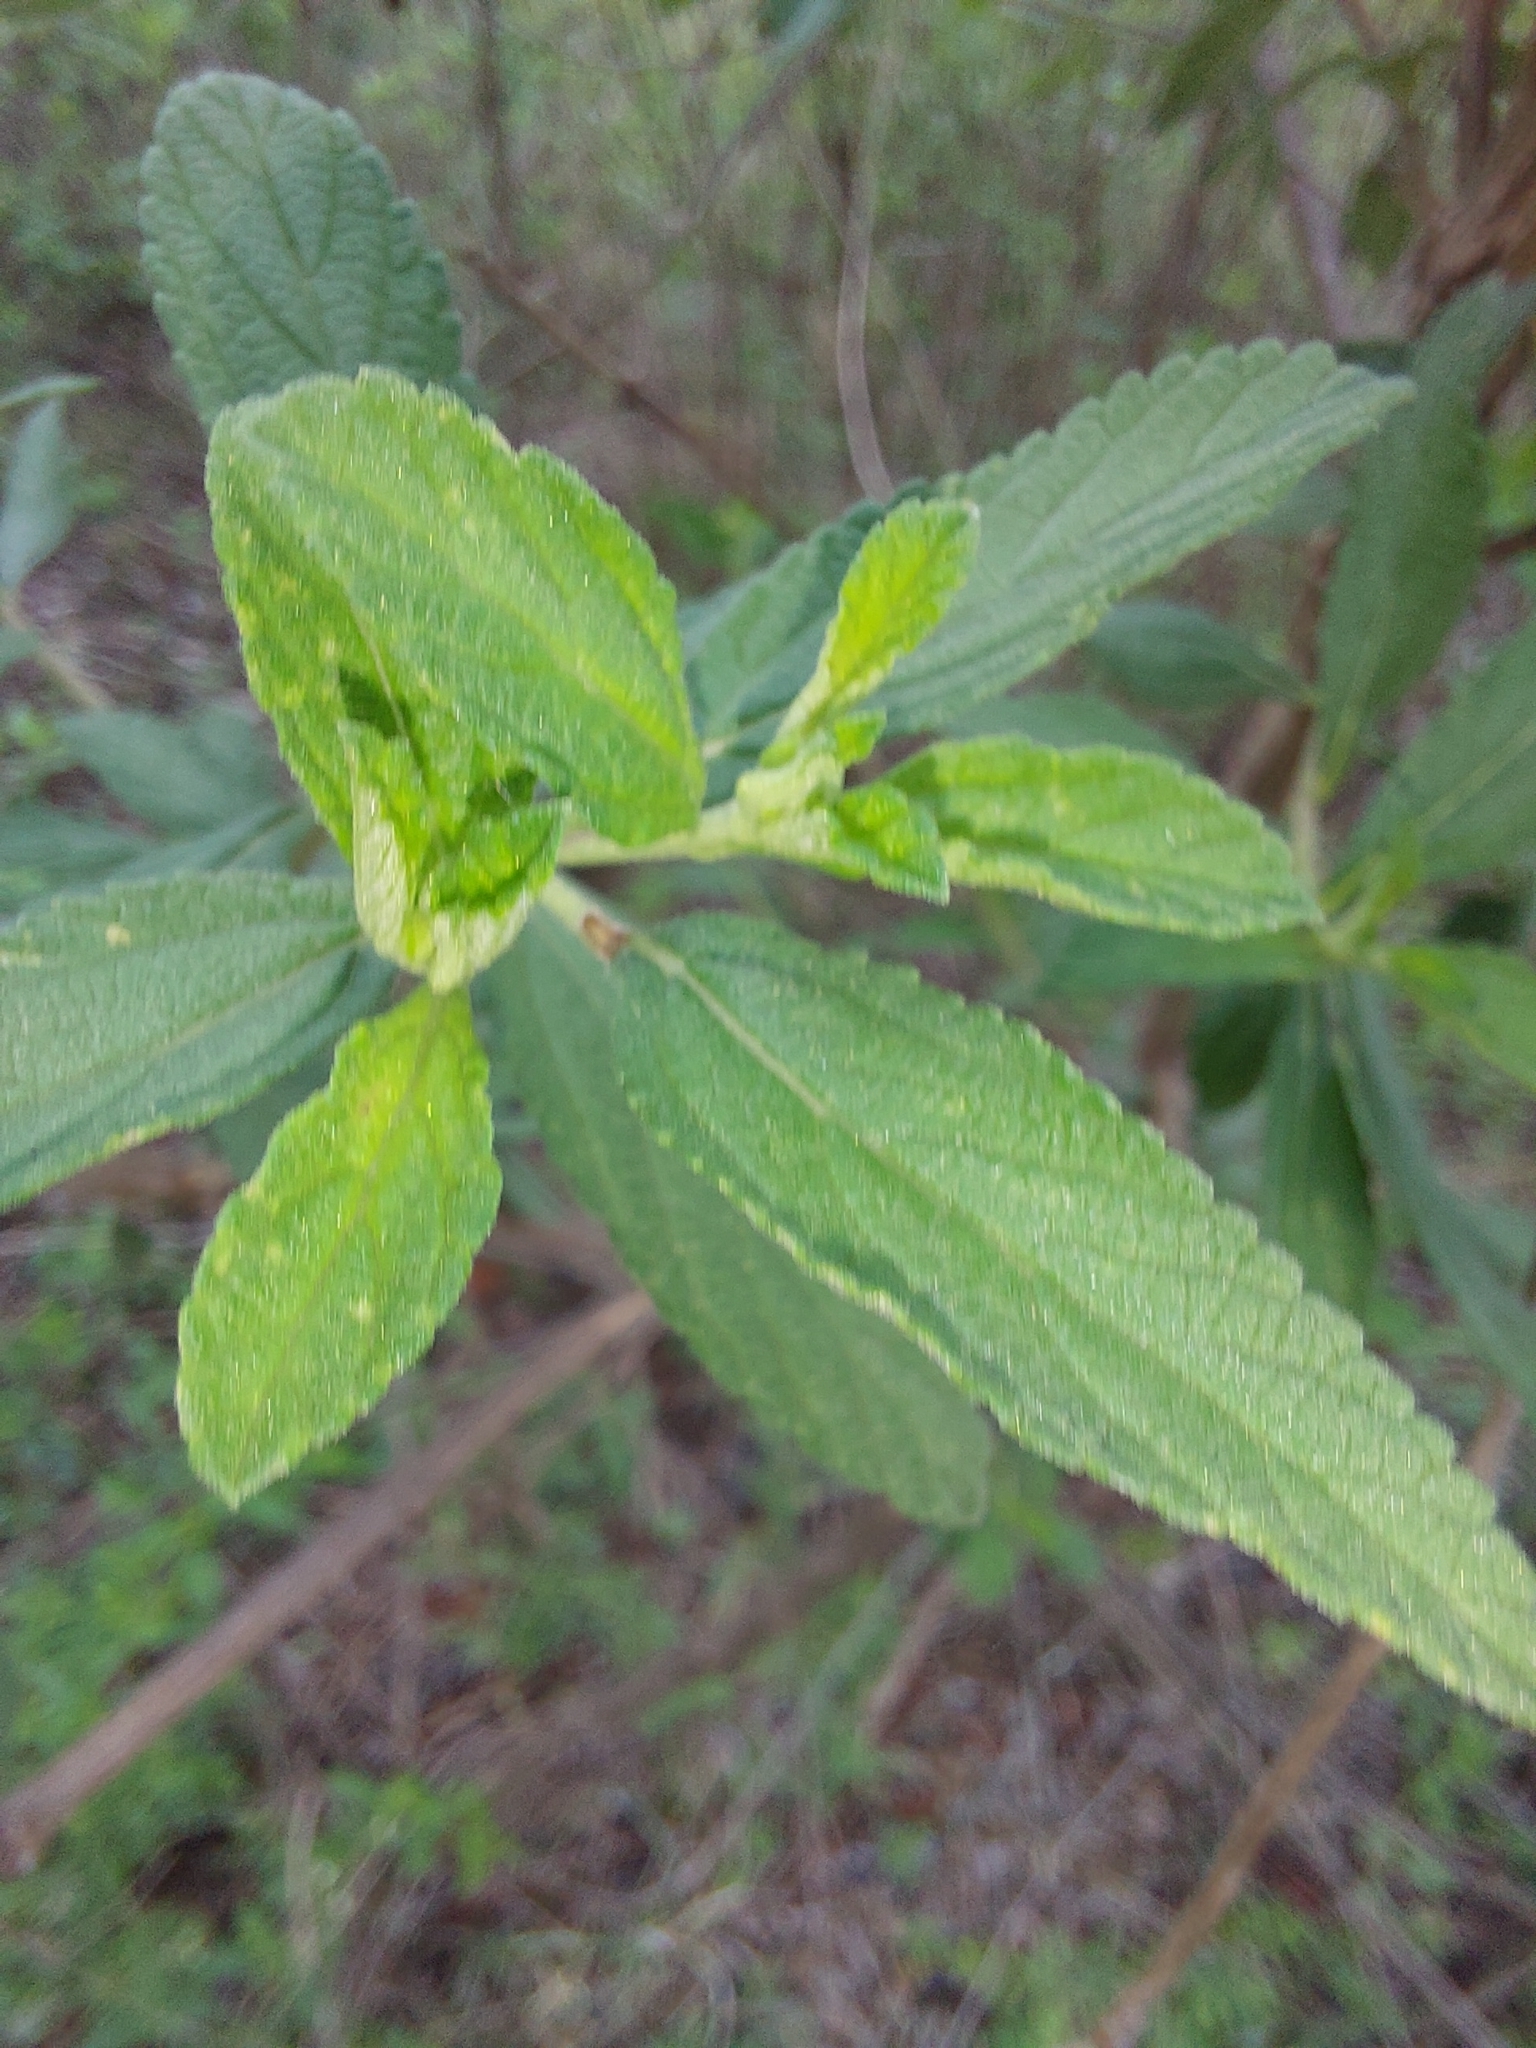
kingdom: Plantae
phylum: Tracheophyta
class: Magnoliopsida
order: Lamiales
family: Verbenaceae
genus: Lippia
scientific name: Lippia javanica
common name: Lemonbush
